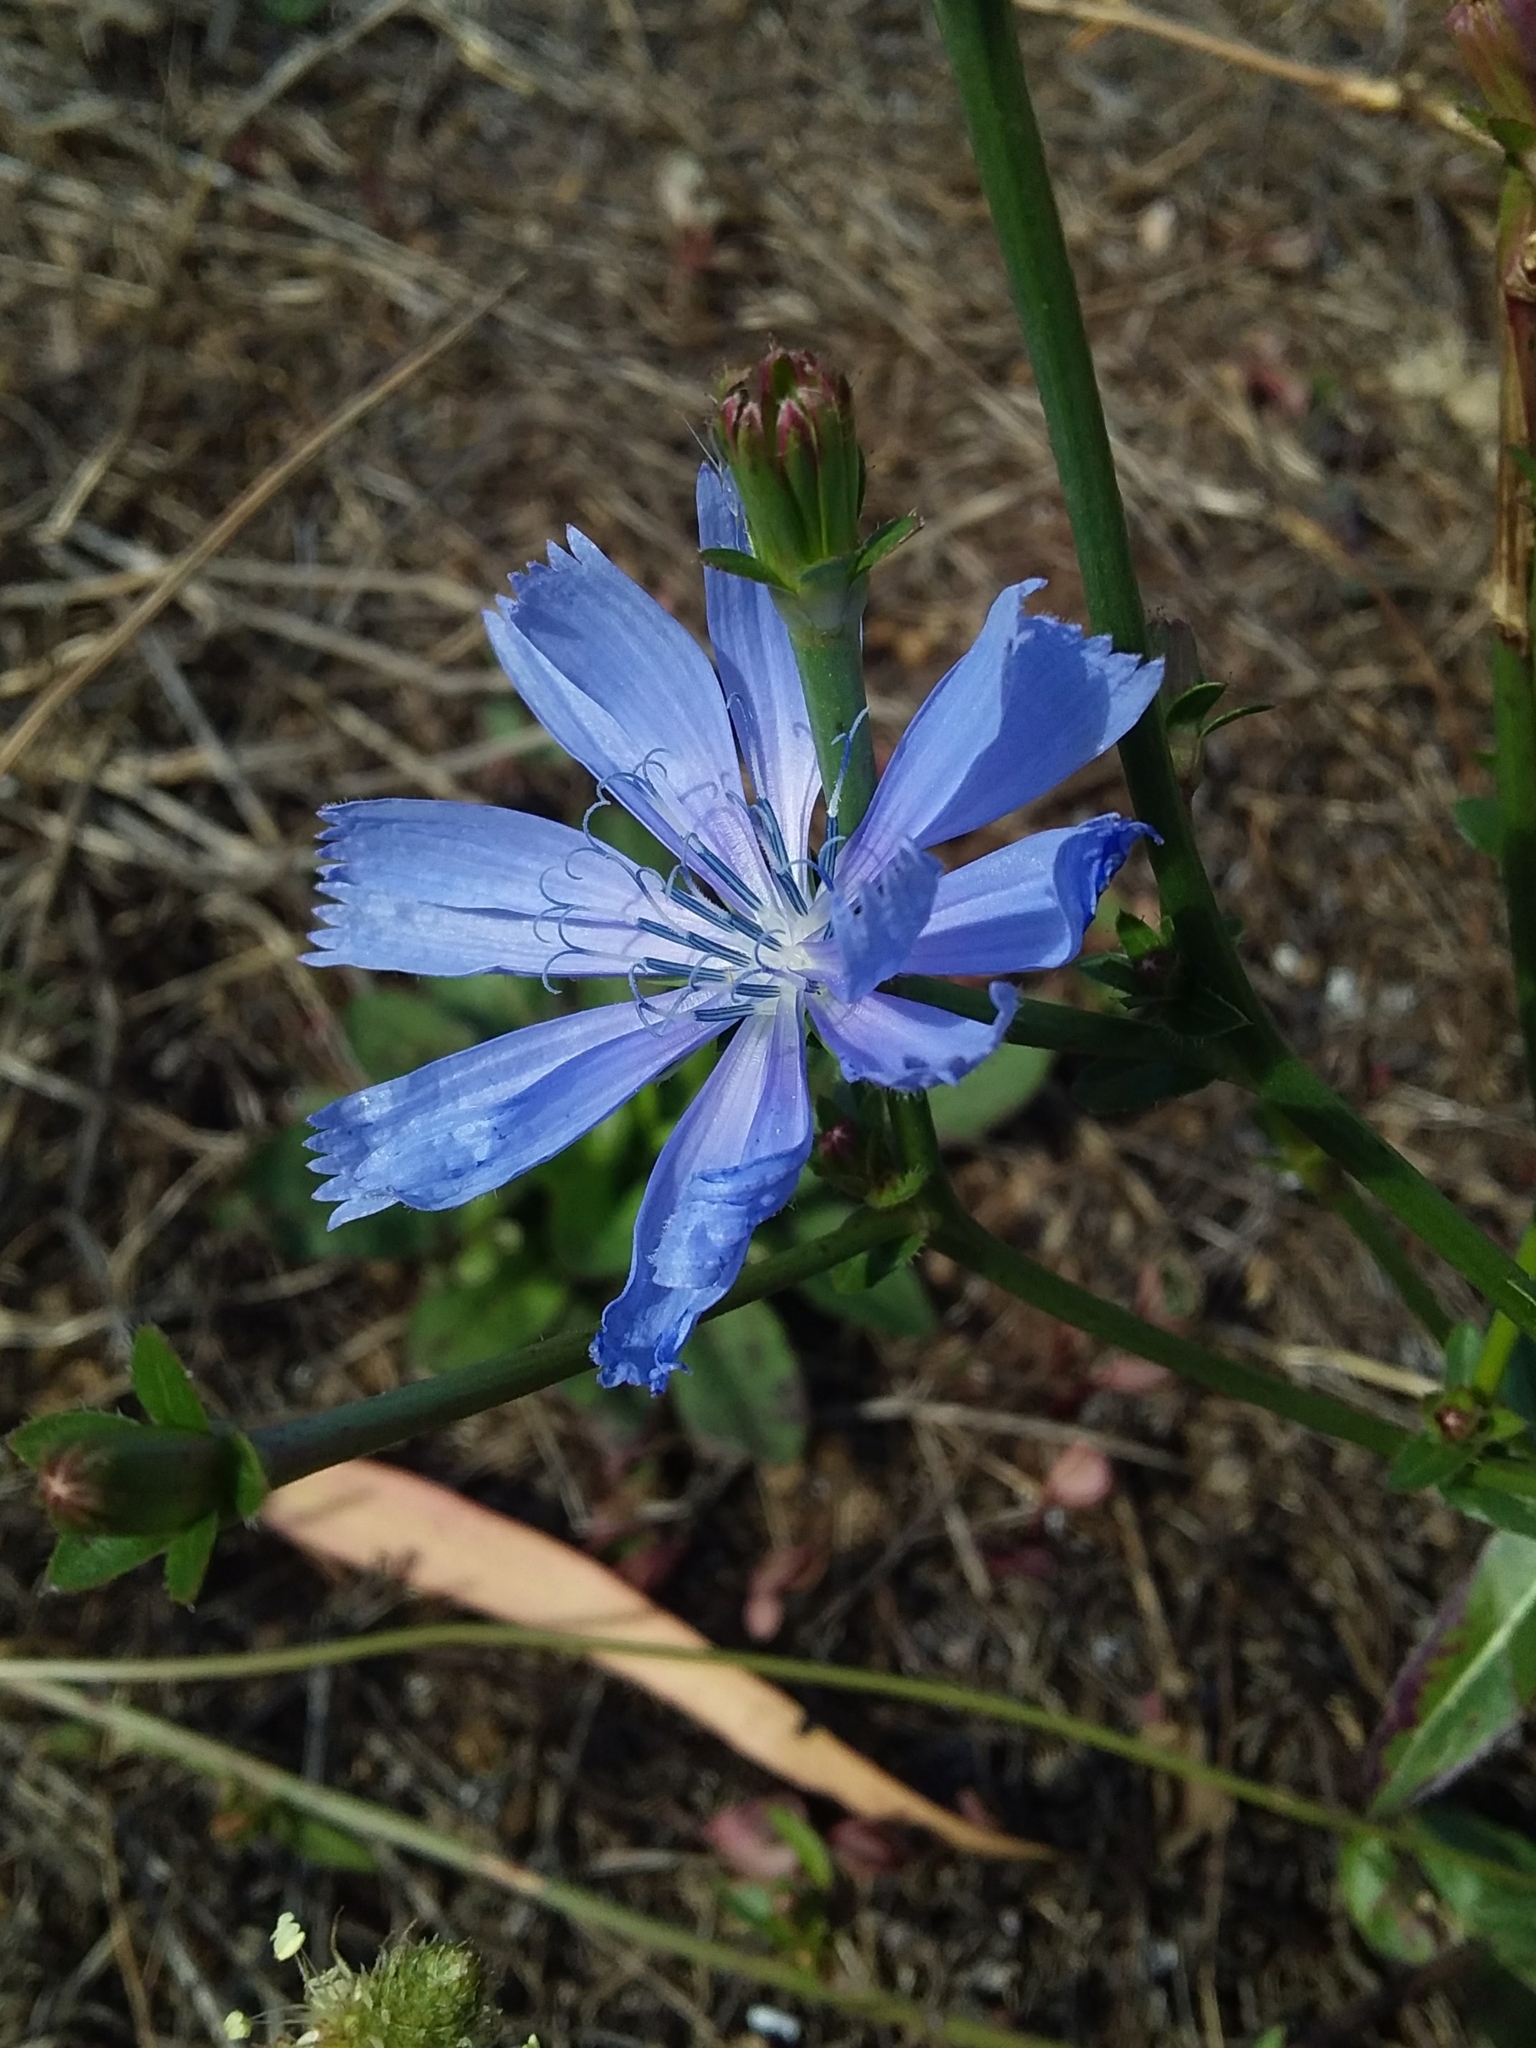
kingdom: Plantae
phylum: Tracheophyta
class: Magnoliopsida
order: Asterales
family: Asteraceae
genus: Cichorium
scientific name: Cichorium intybus
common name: Chicory
